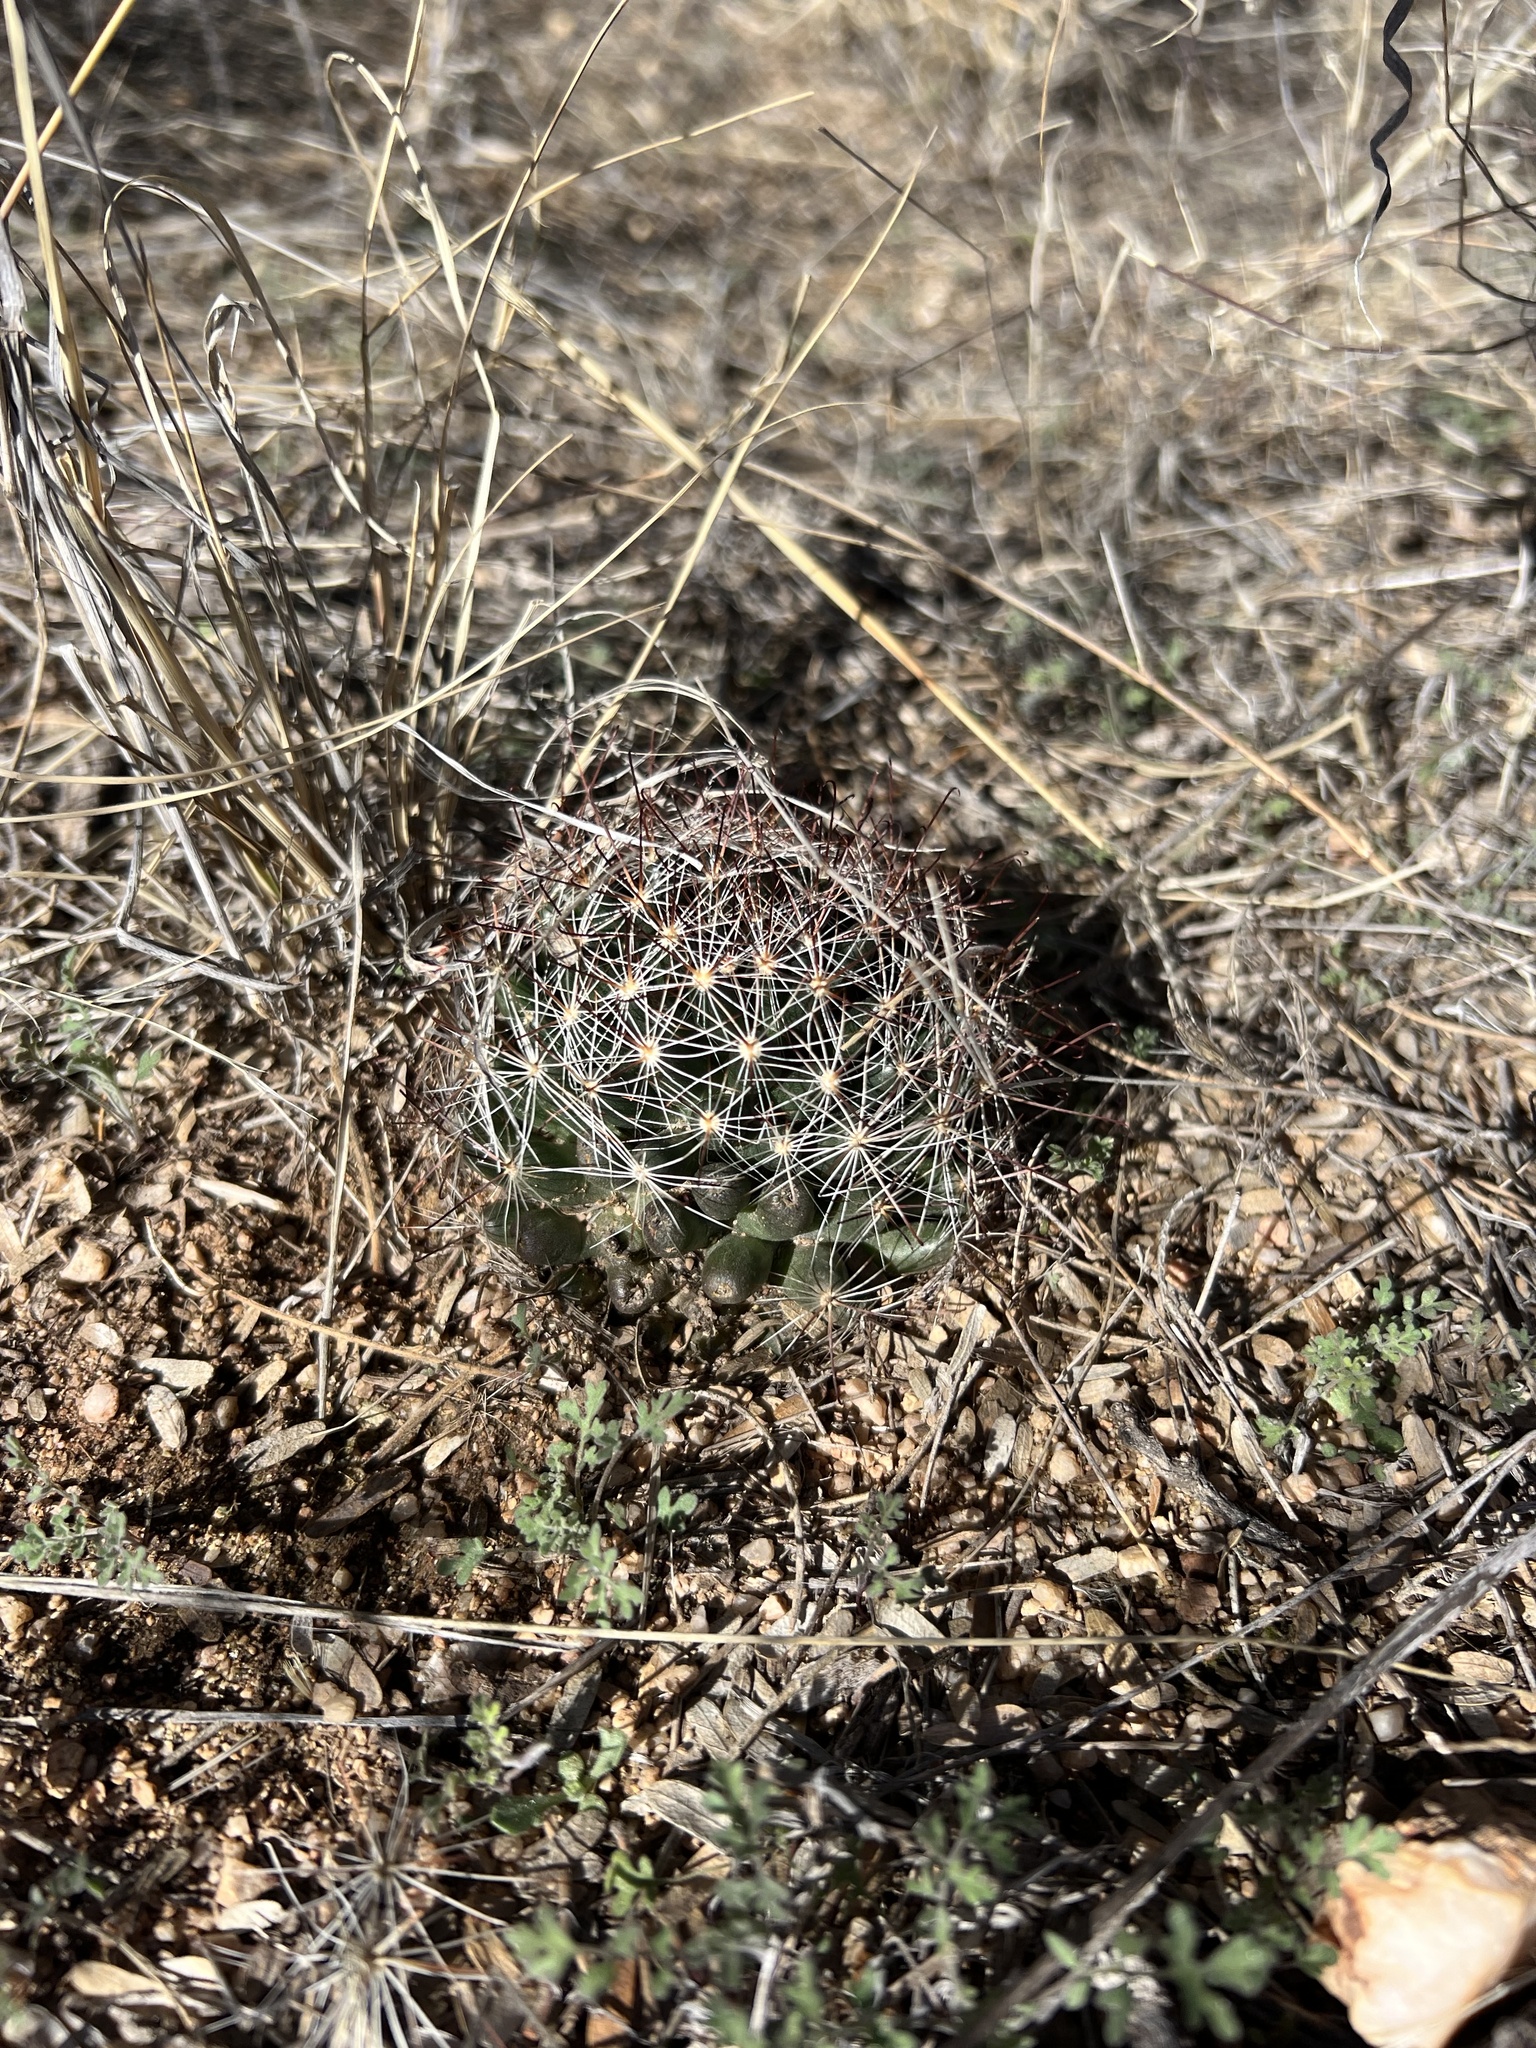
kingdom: Plantae
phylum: Tracheophyta
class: Magnoliopsida
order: Caryophyllales
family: Cactaceae
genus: Cochemiea
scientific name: Cochemiea wrightii
